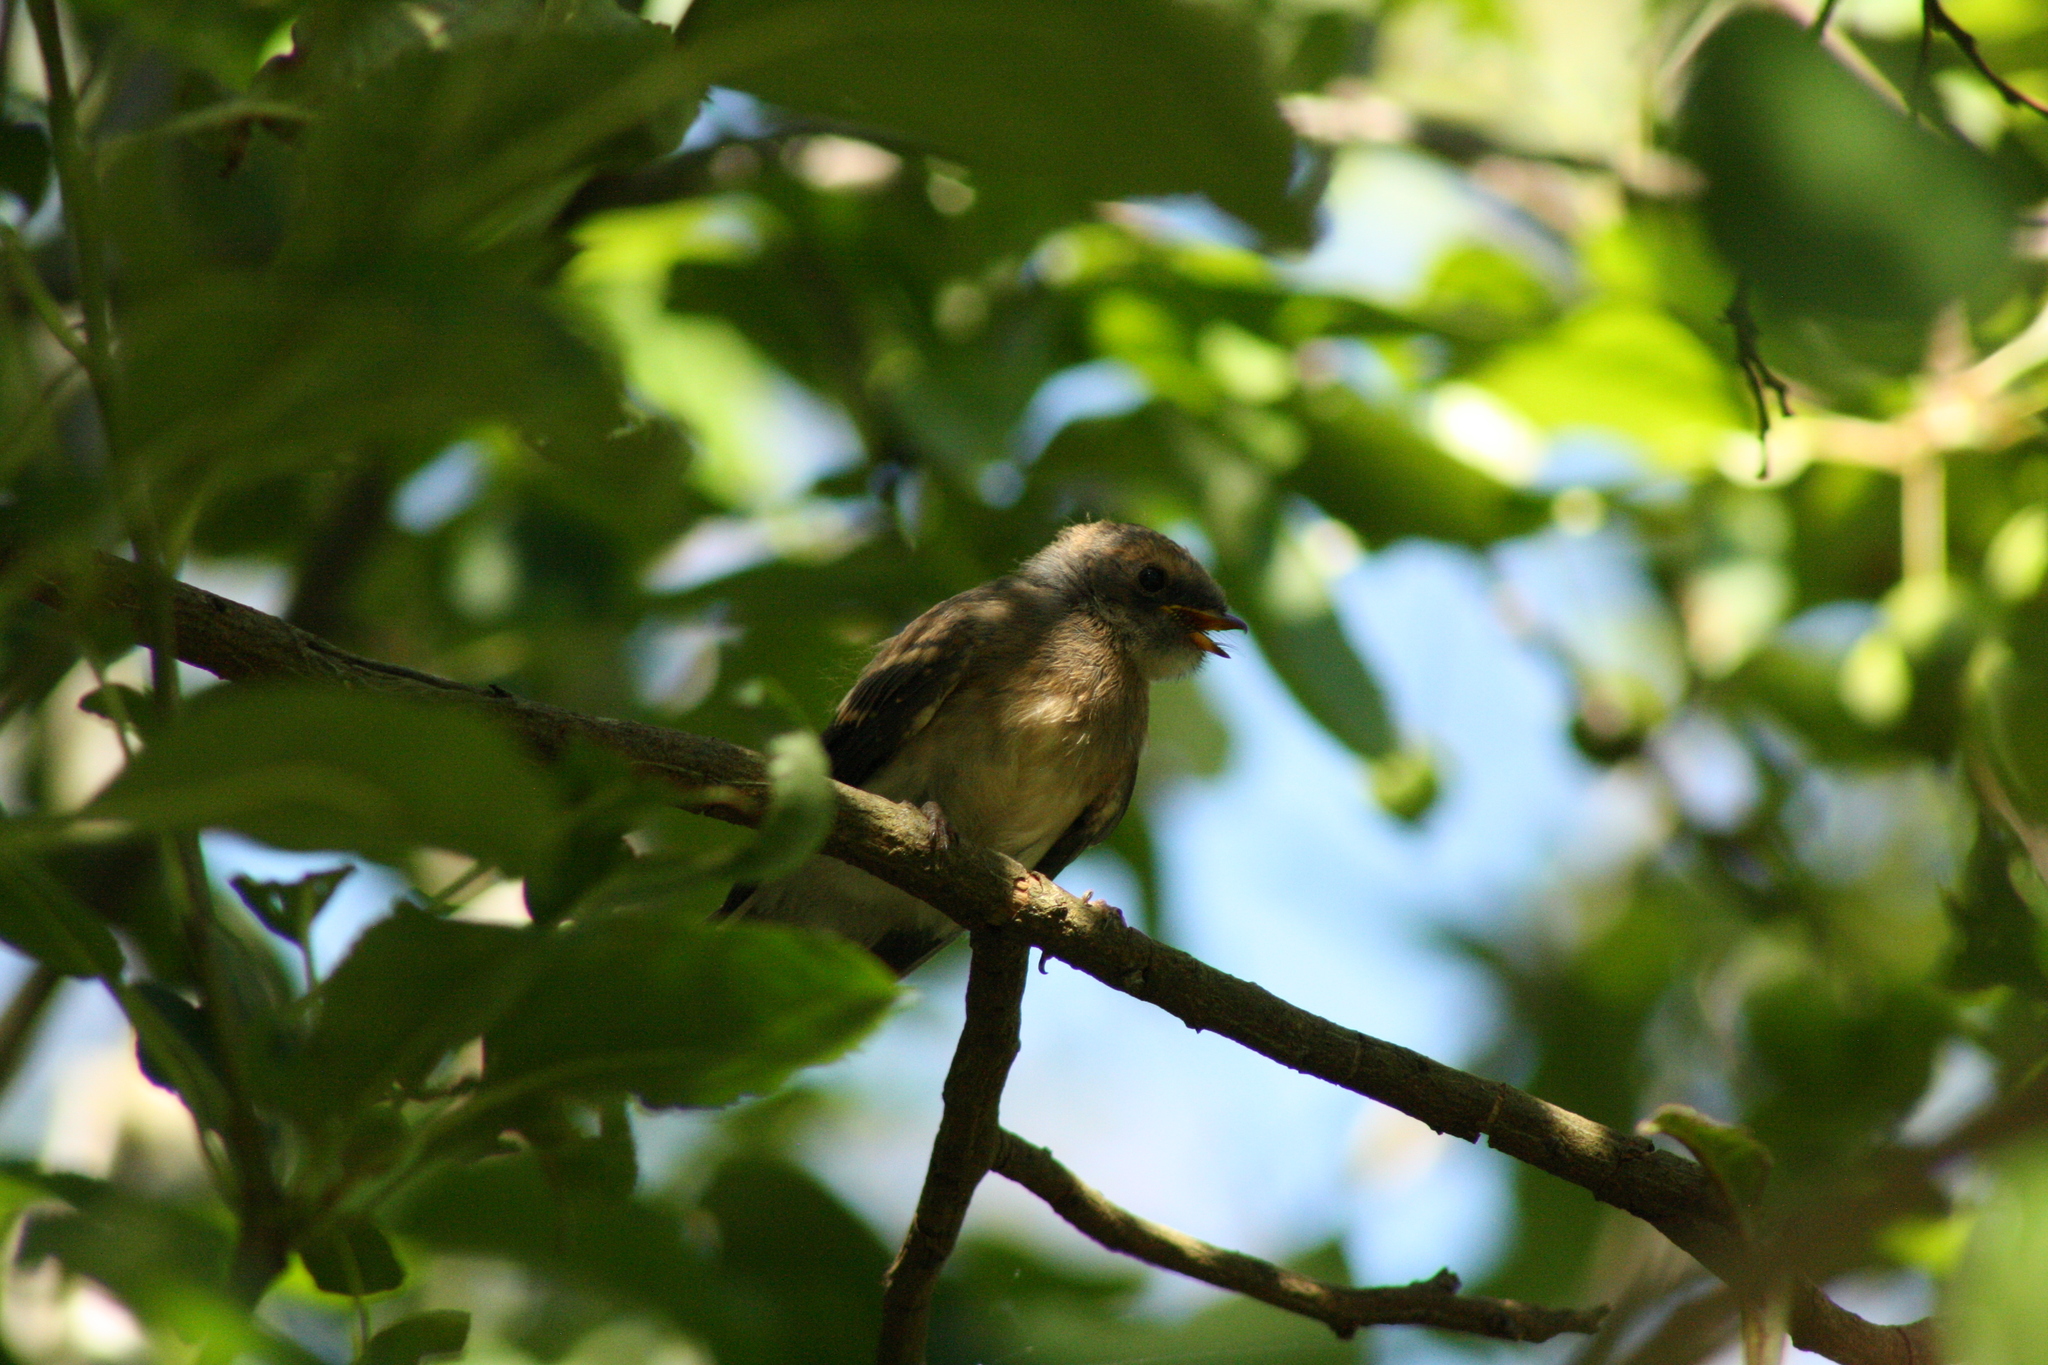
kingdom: Animalia
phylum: Chordata
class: Aves
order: Passeriformes
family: Rhipiduridae
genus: Rhipidura
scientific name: Rhipidura albiscapa
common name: Grey fantail
